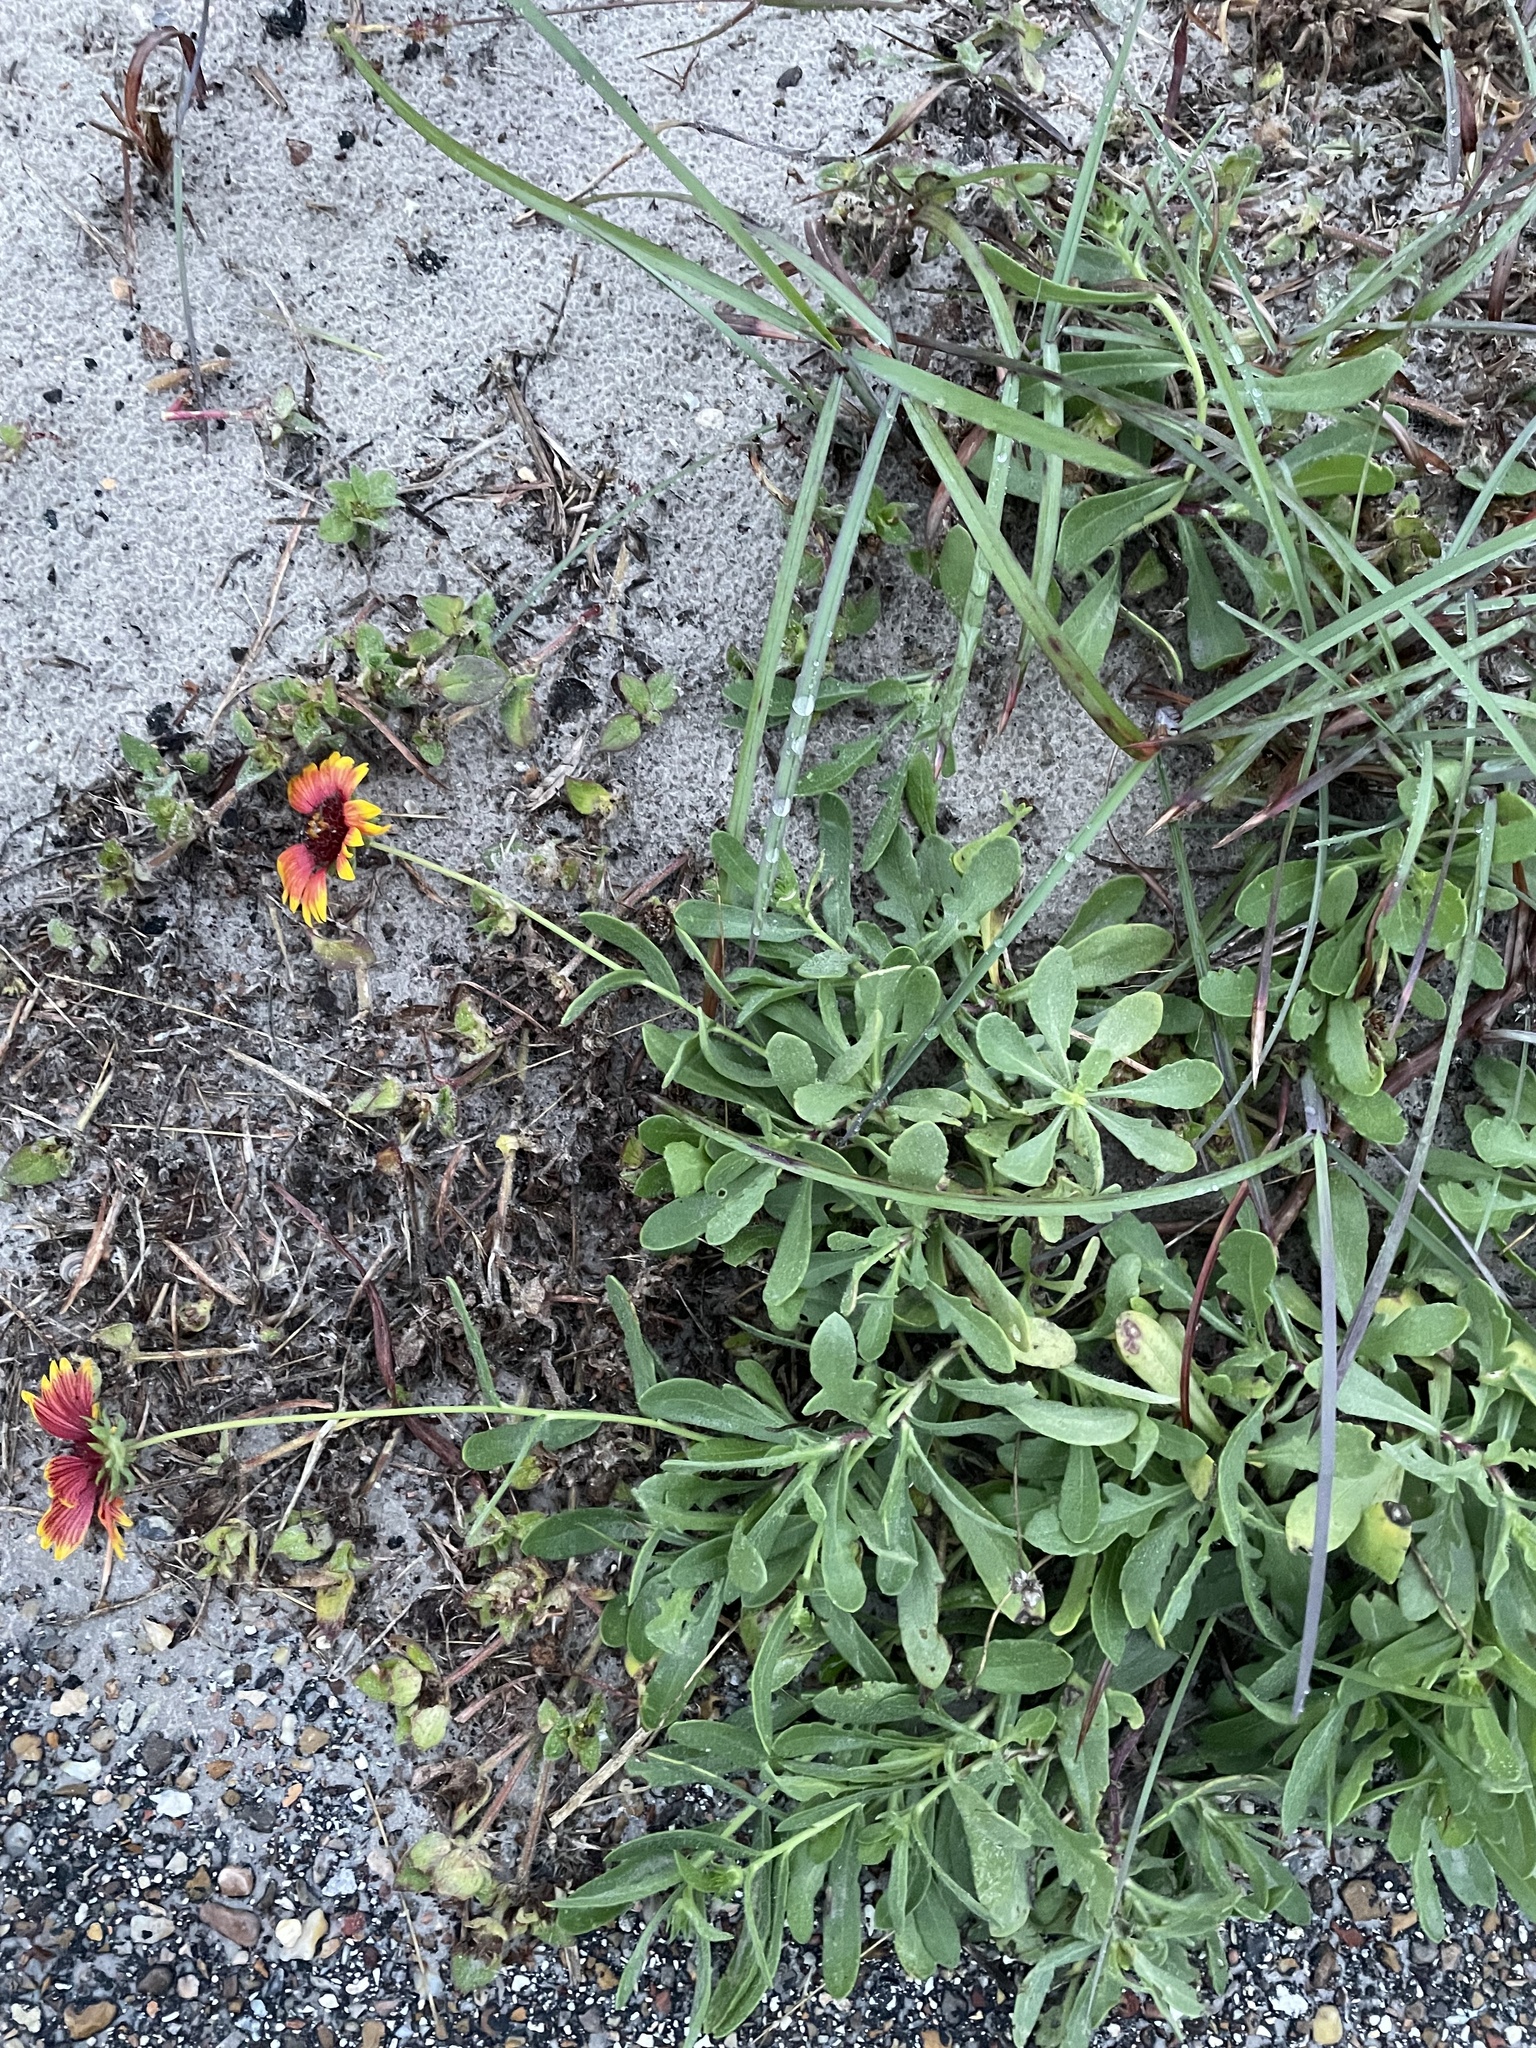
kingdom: Plantae
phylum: Tracheophyta
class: Magnoliopsida
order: Asterales
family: Asteraceae
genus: Gaillardia
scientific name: Gaillardia pulchella
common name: Firewheel
